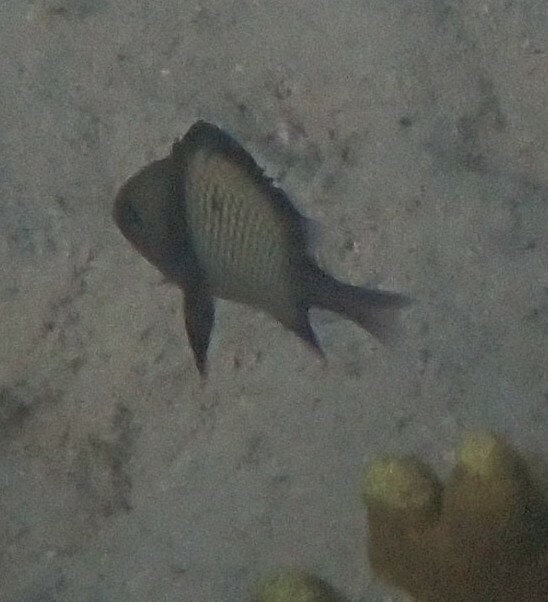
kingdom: Animalia
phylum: Chordata
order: Perciformes
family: Pomacentridae
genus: Dascyllus
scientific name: Dascyllus reticulatus
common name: Reticulated dascyllus
